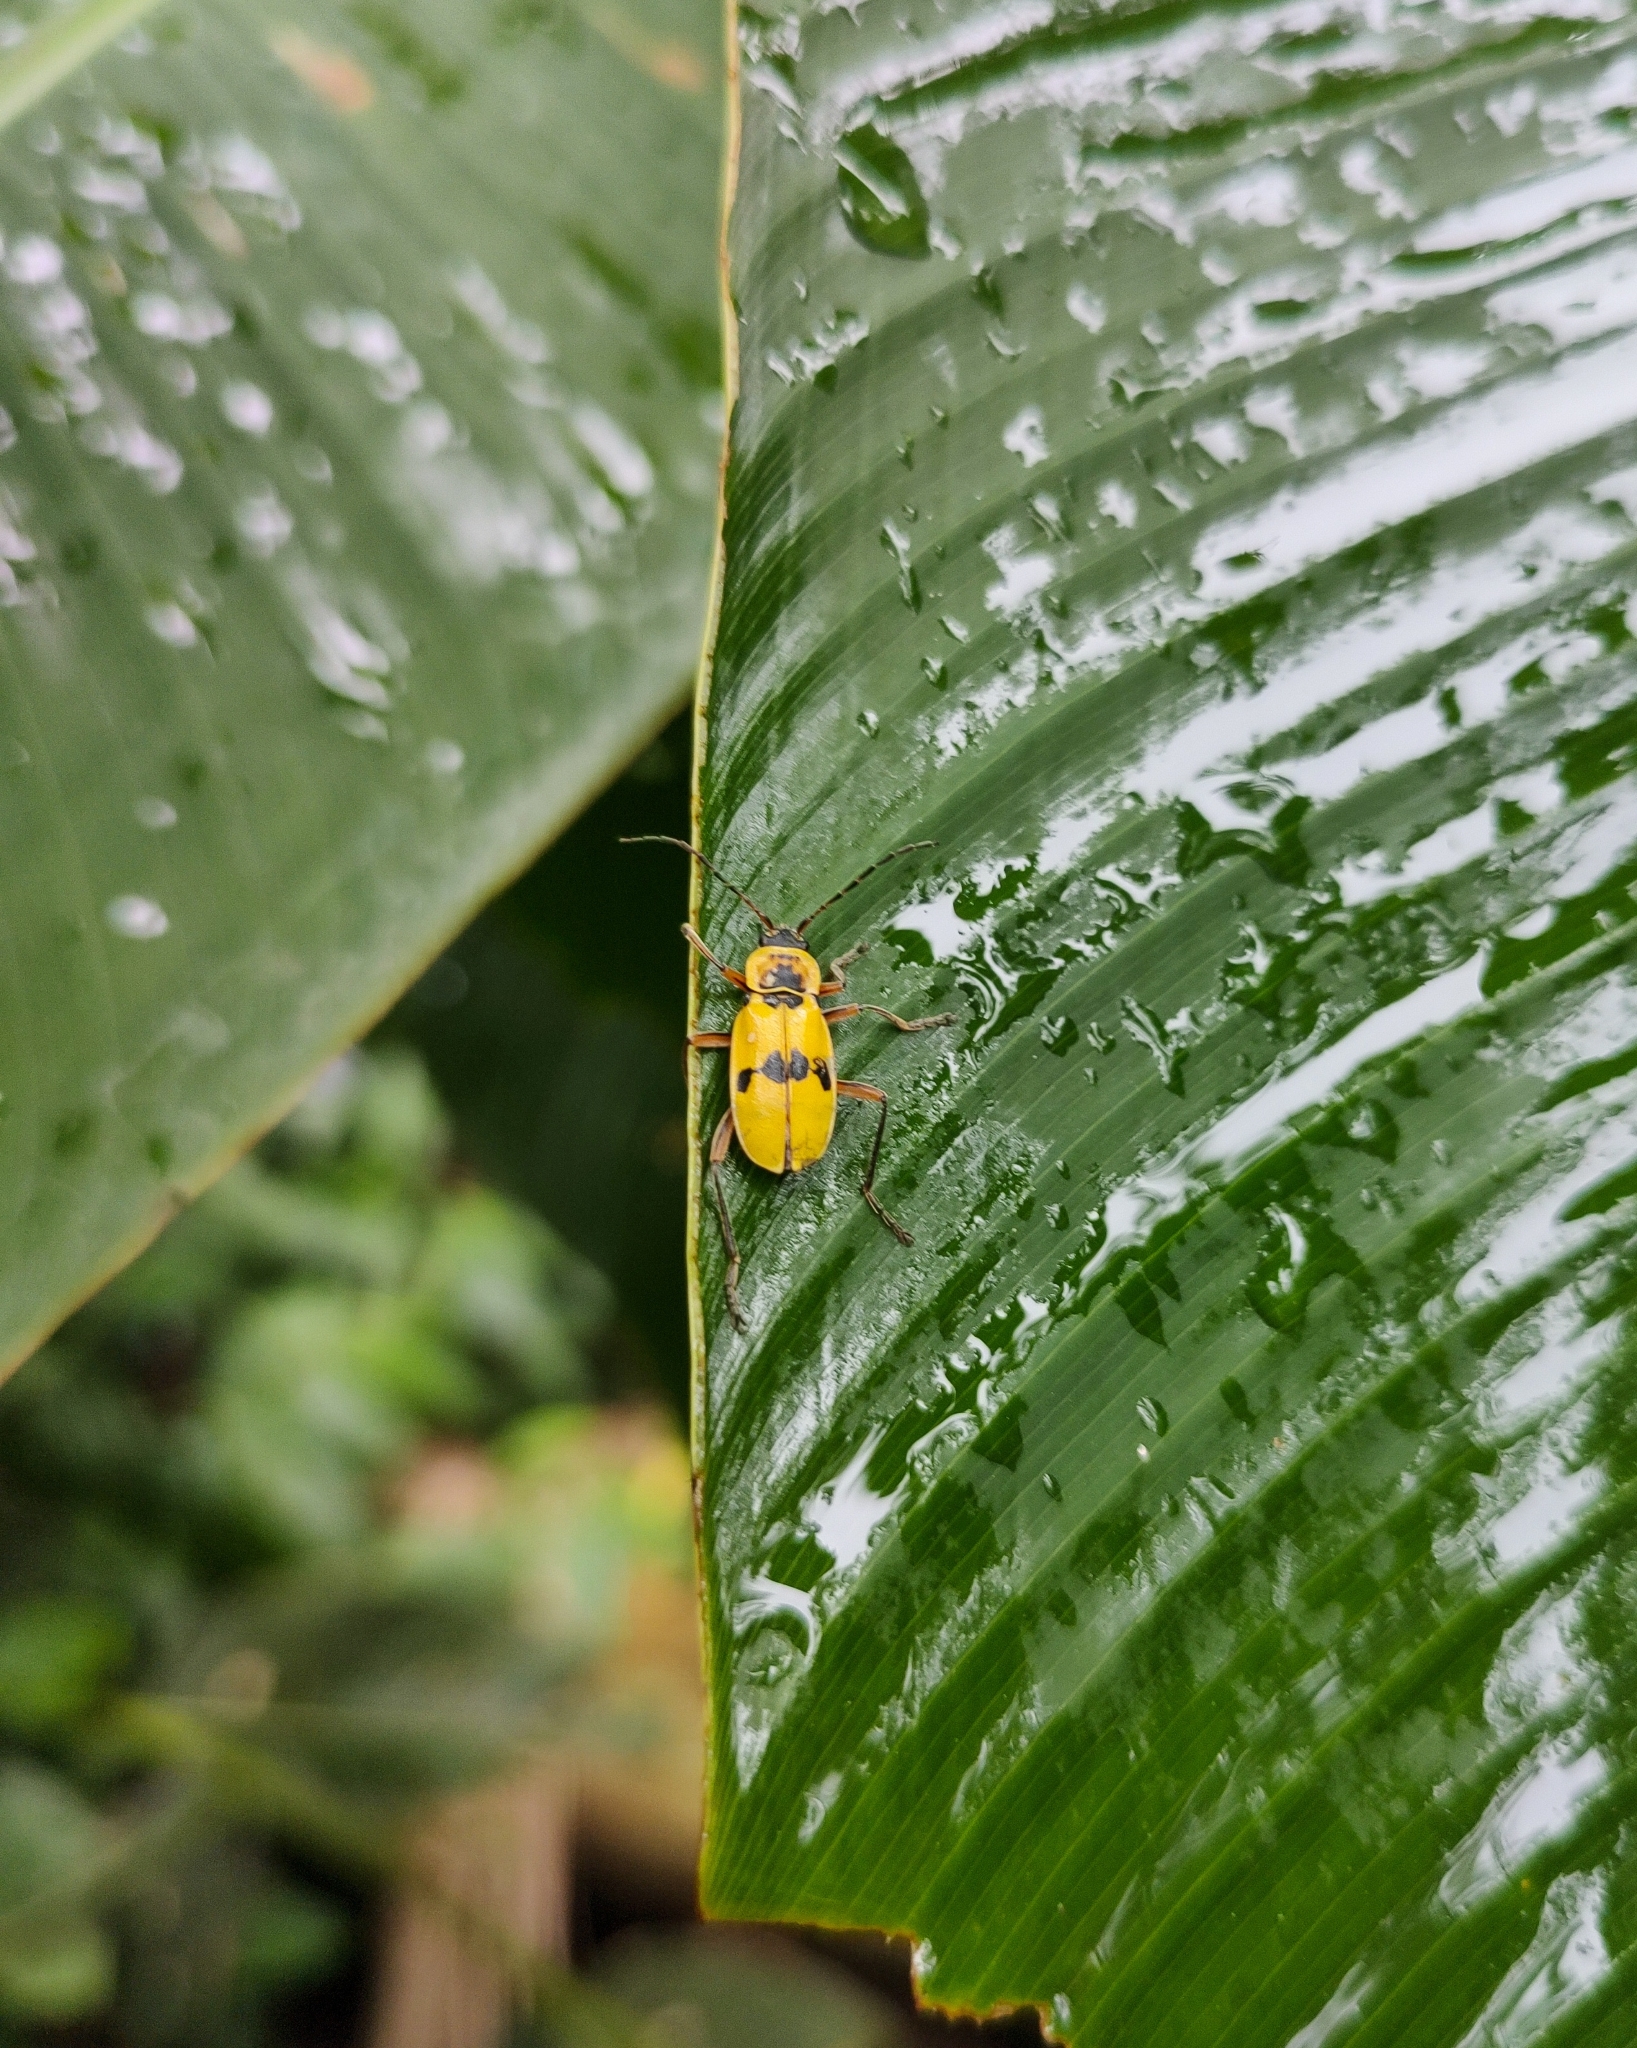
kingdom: Animalia
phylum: Arthropoda
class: Insecta
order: Coleoptera
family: Cantharidae
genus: Chauliognathus
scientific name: Chauliognathus
